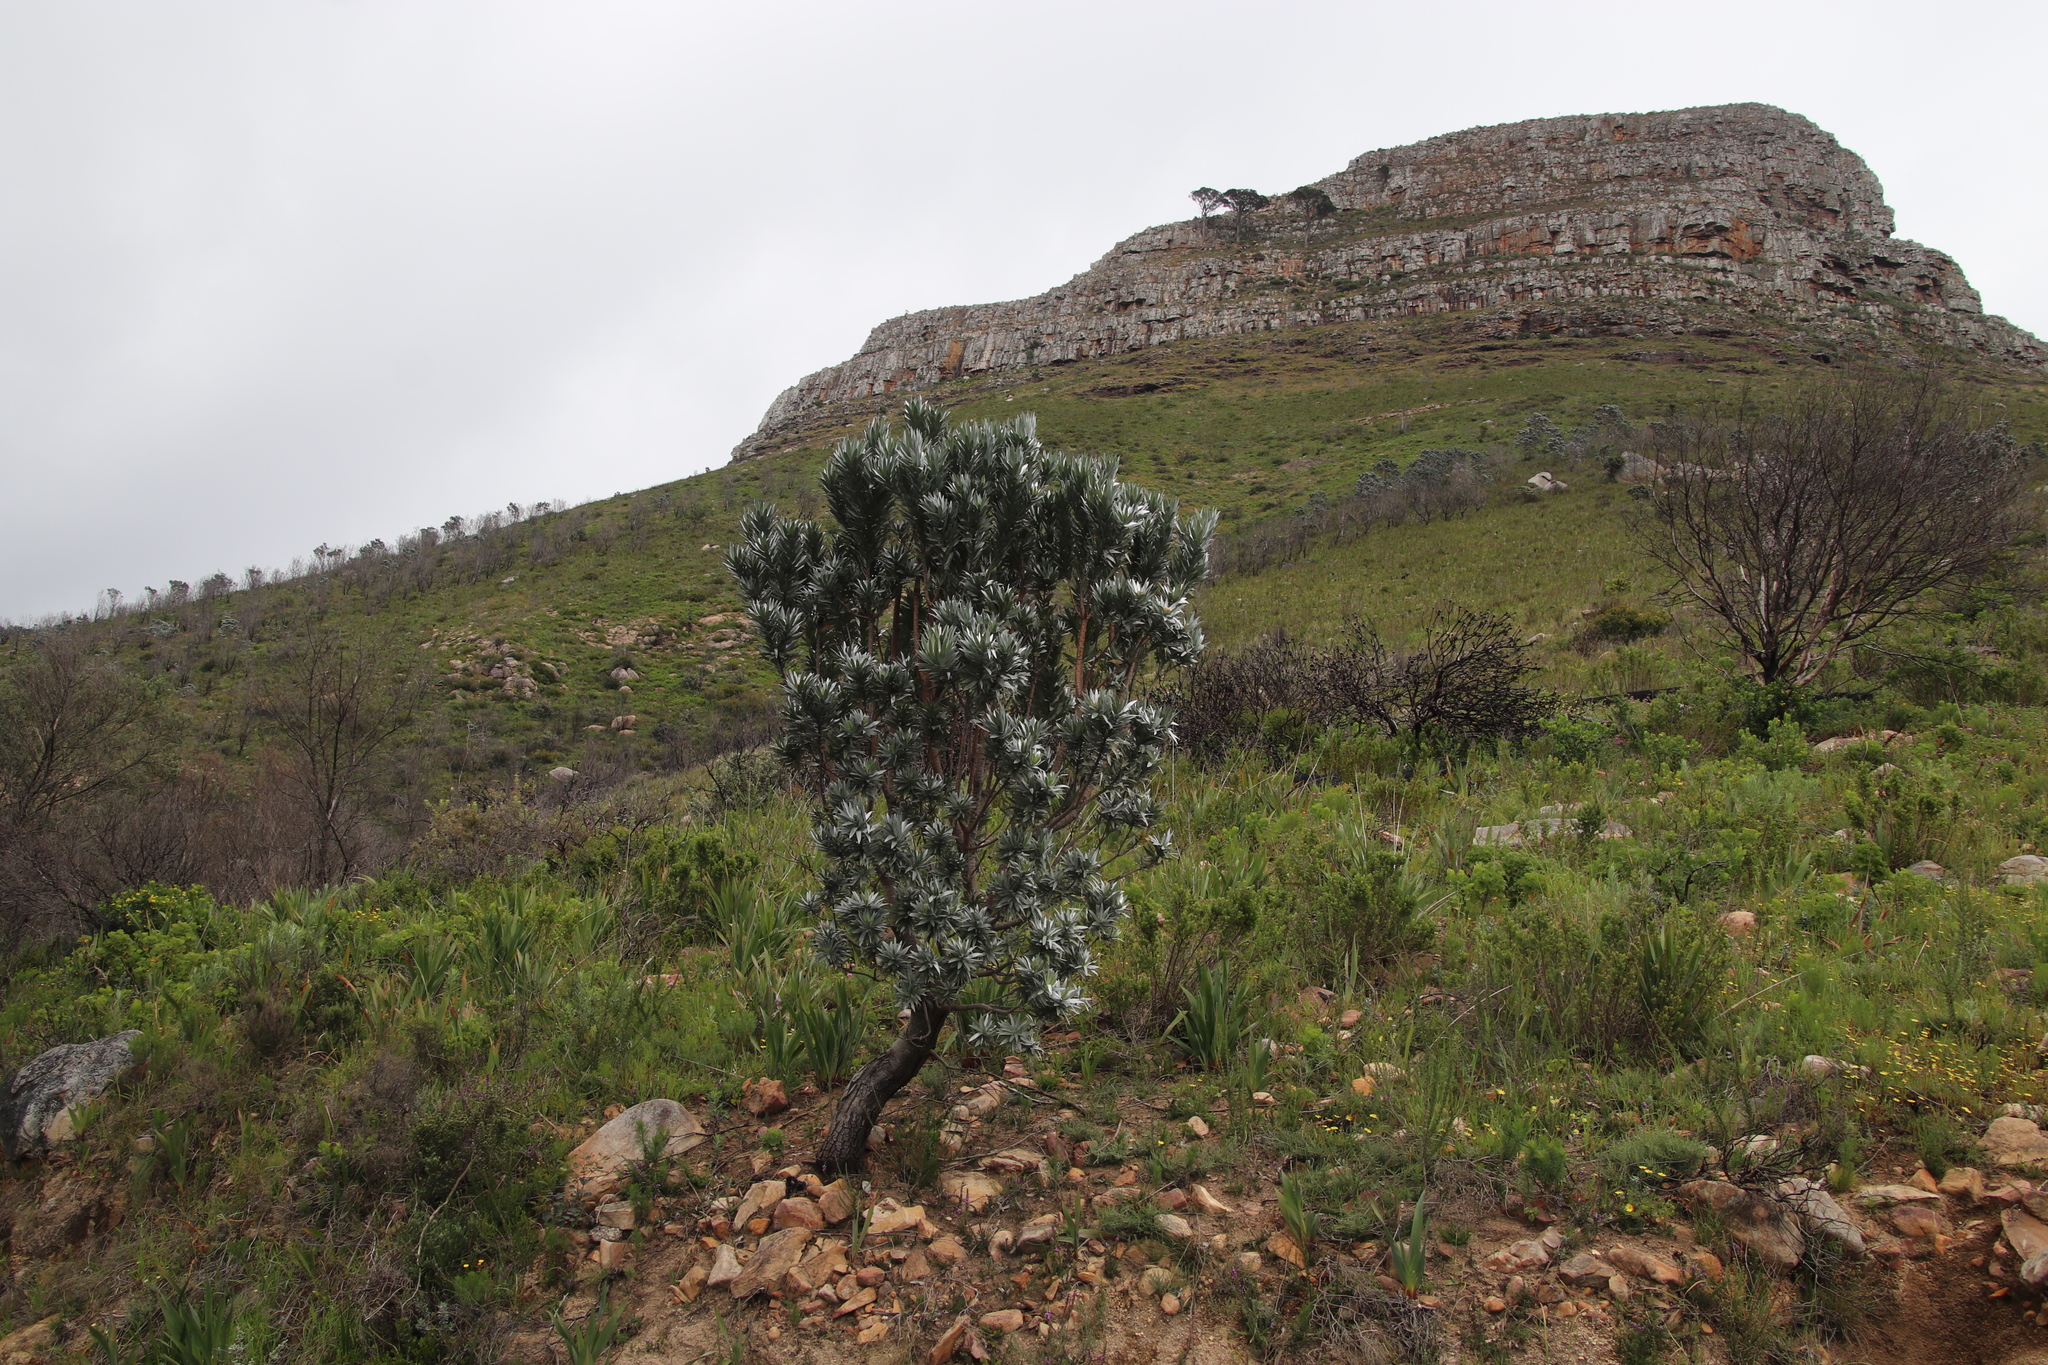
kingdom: Plantae
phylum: Tracheophyta
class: Magnoliopsida
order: Proteales
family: Proteaceae
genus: Leucadendron
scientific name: Leucadendron argenteum
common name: Cape silver tree
